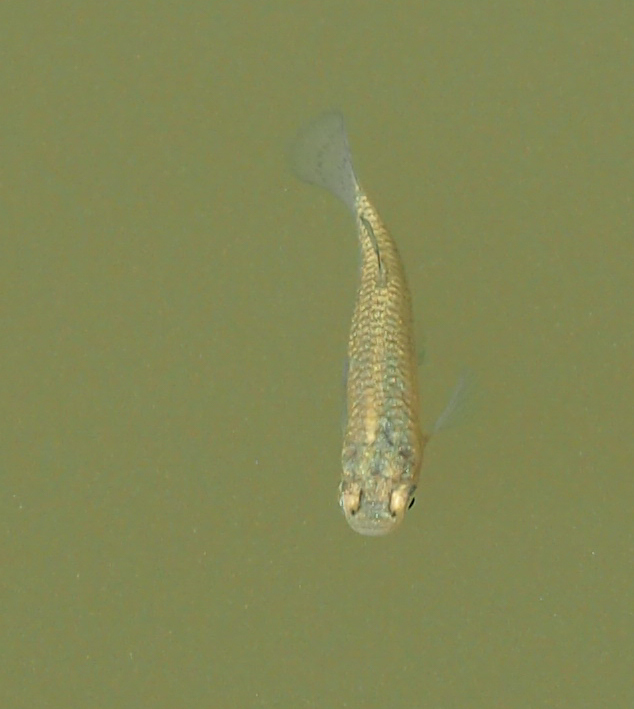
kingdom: Animalia
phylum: Chordata
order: Cyprinodontiformes
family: Poeciliidae
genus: Gambusia
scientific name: Gambusia holbrooki
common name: Eastern mosquitofish
